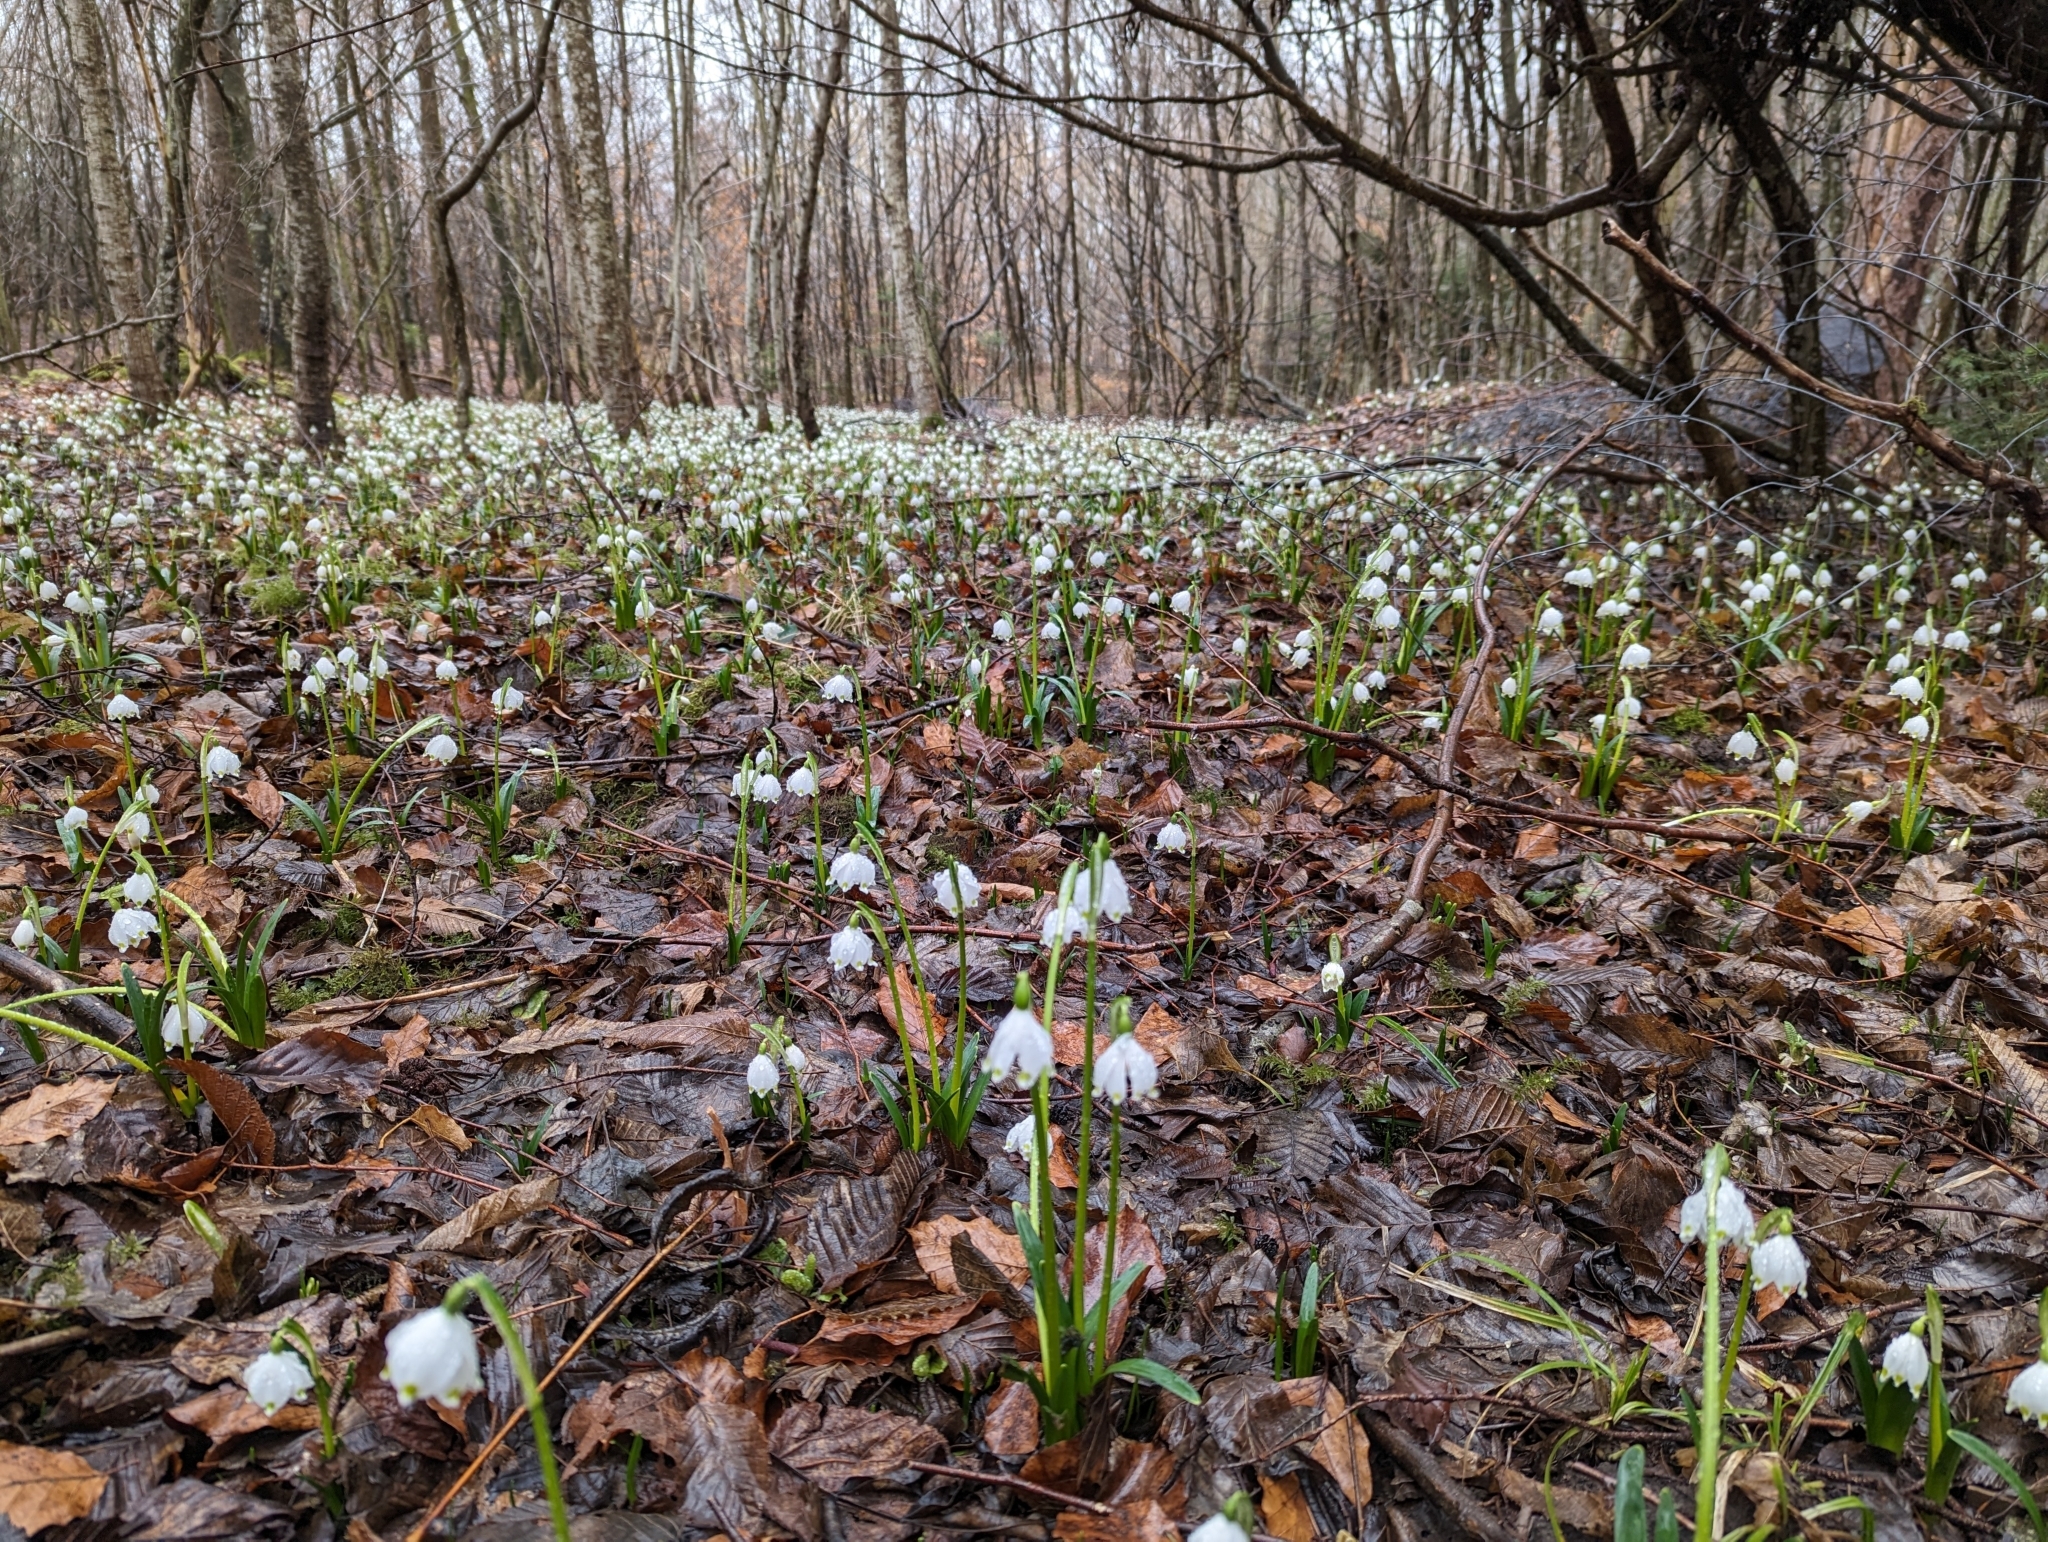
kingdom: Plantae
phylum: Tracheophyta
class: Liliopsida
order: Asparagales
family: Amaryllidaceae
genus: Leucojum
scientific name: Leucojum vernum
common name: Spring snowflake
